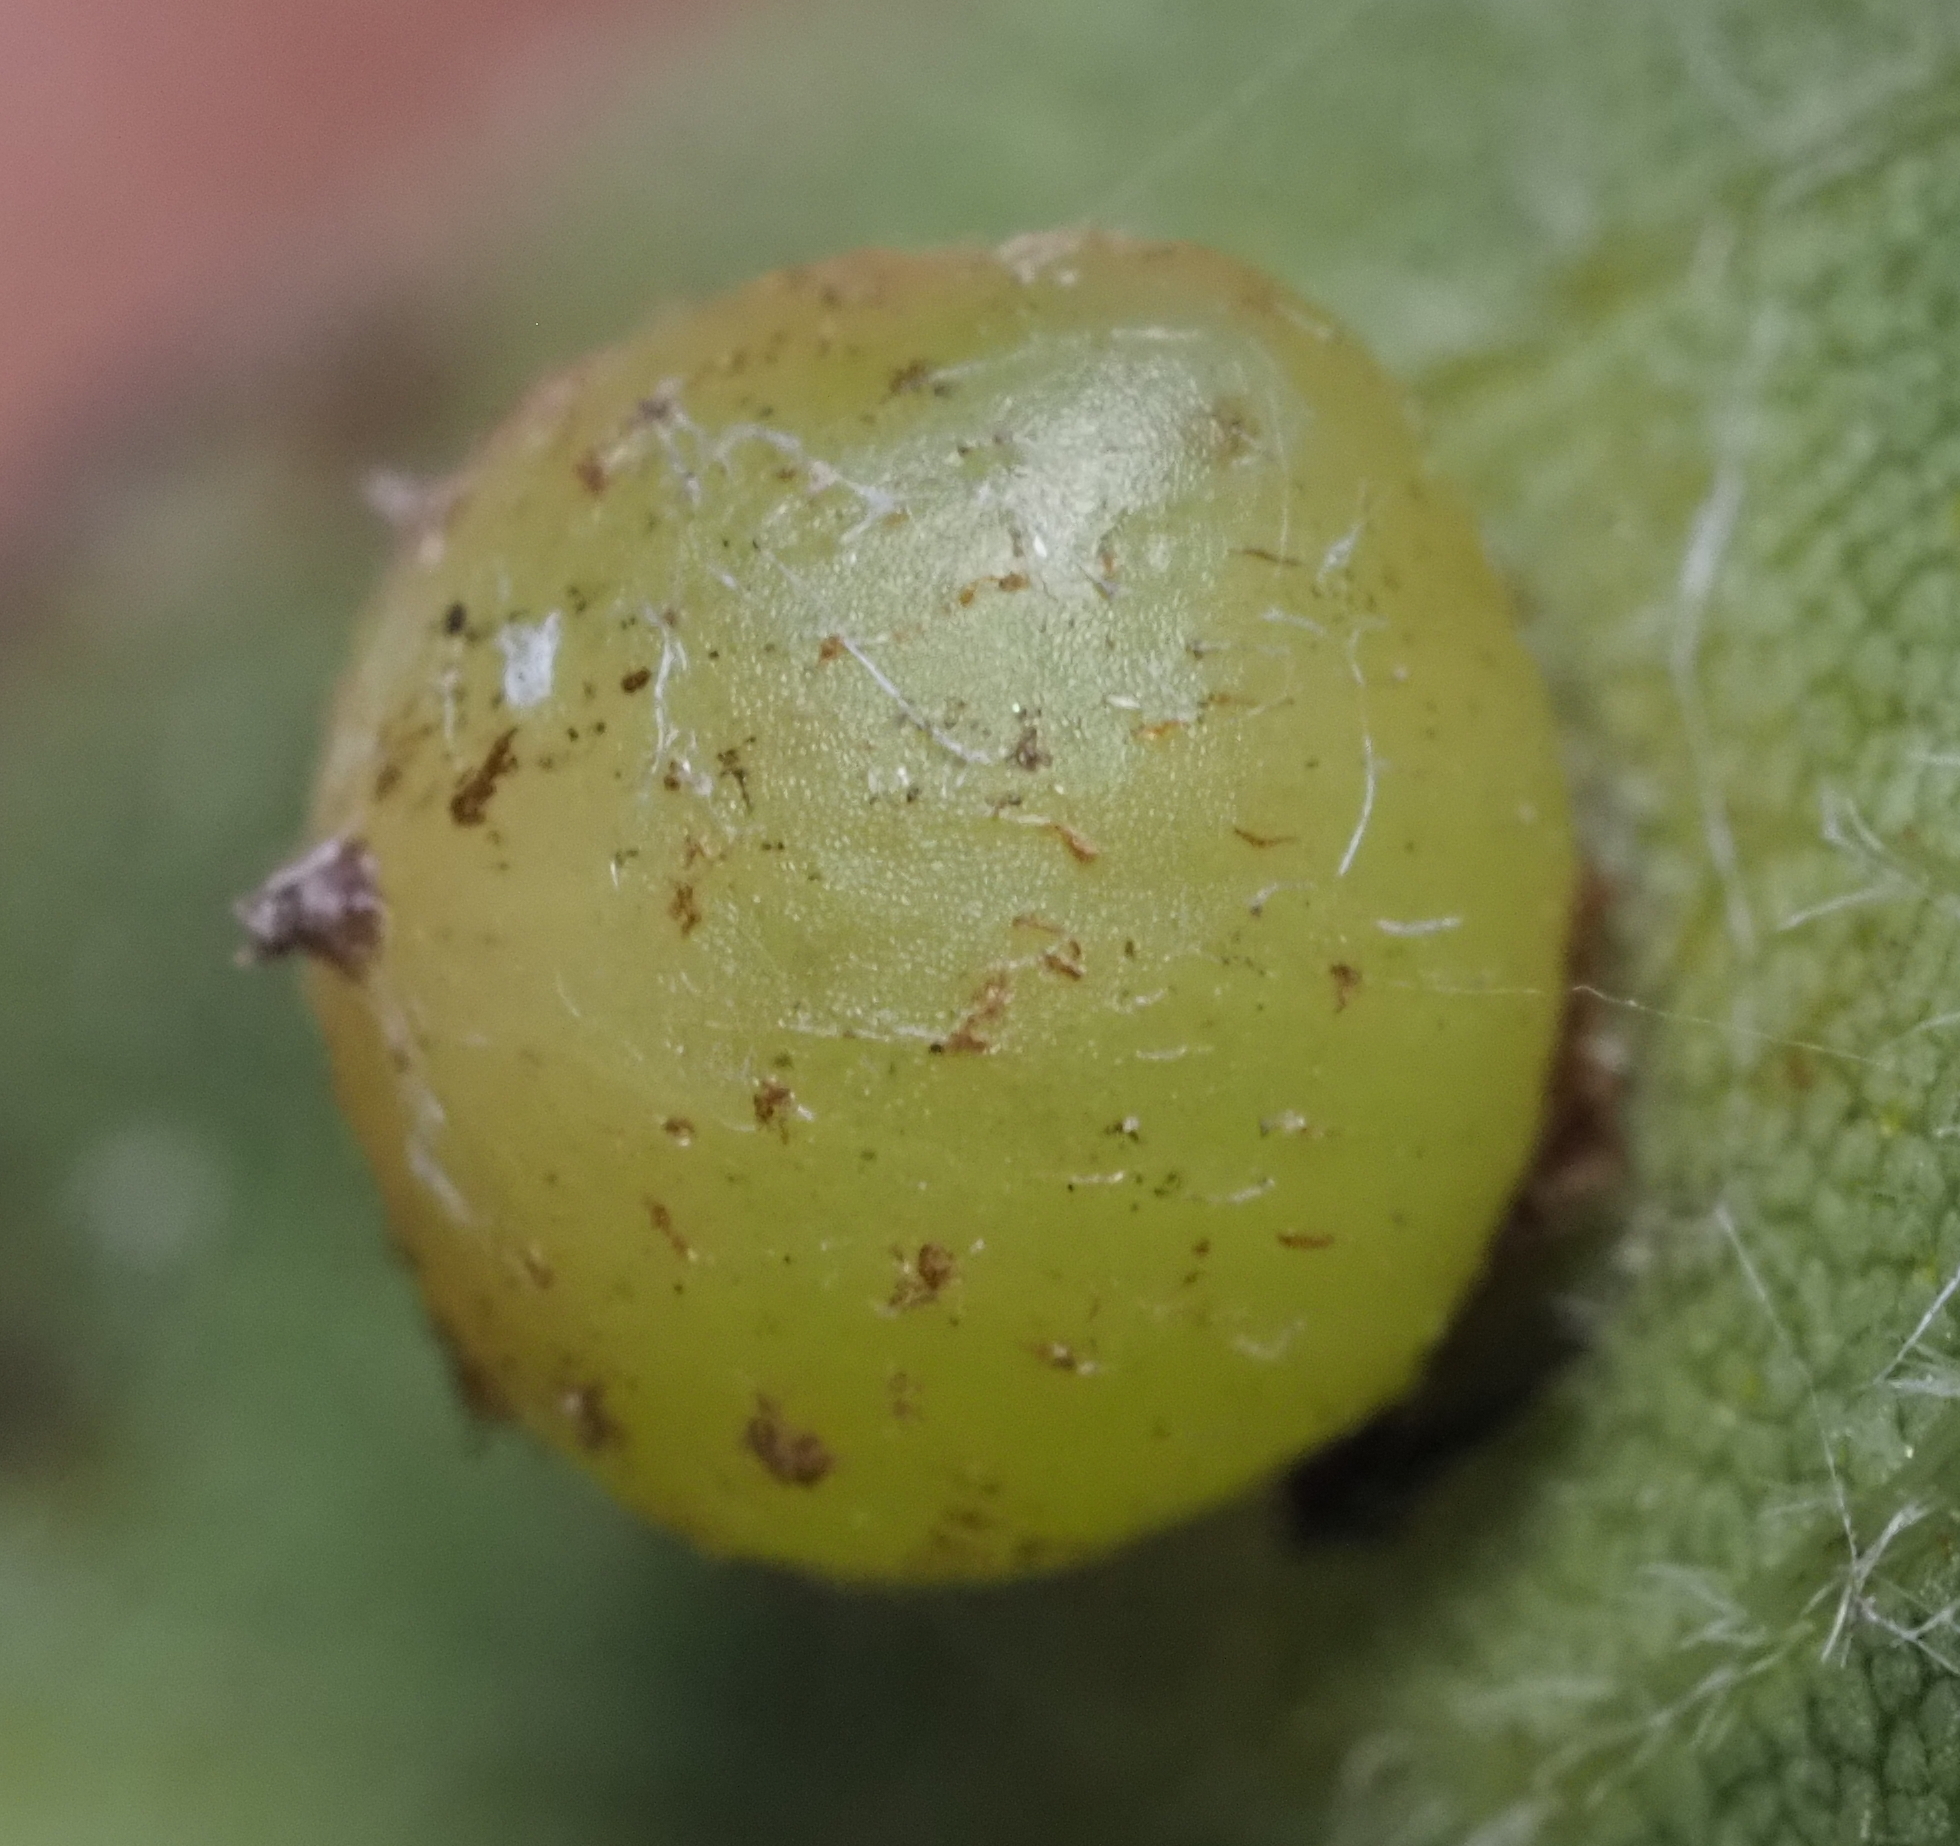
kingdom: Animalia
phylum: Arthropoda
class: Insecta
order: Diptera
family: Cecidomyiidae
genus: Caryomyia
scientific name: Caryomyia deflexipili
